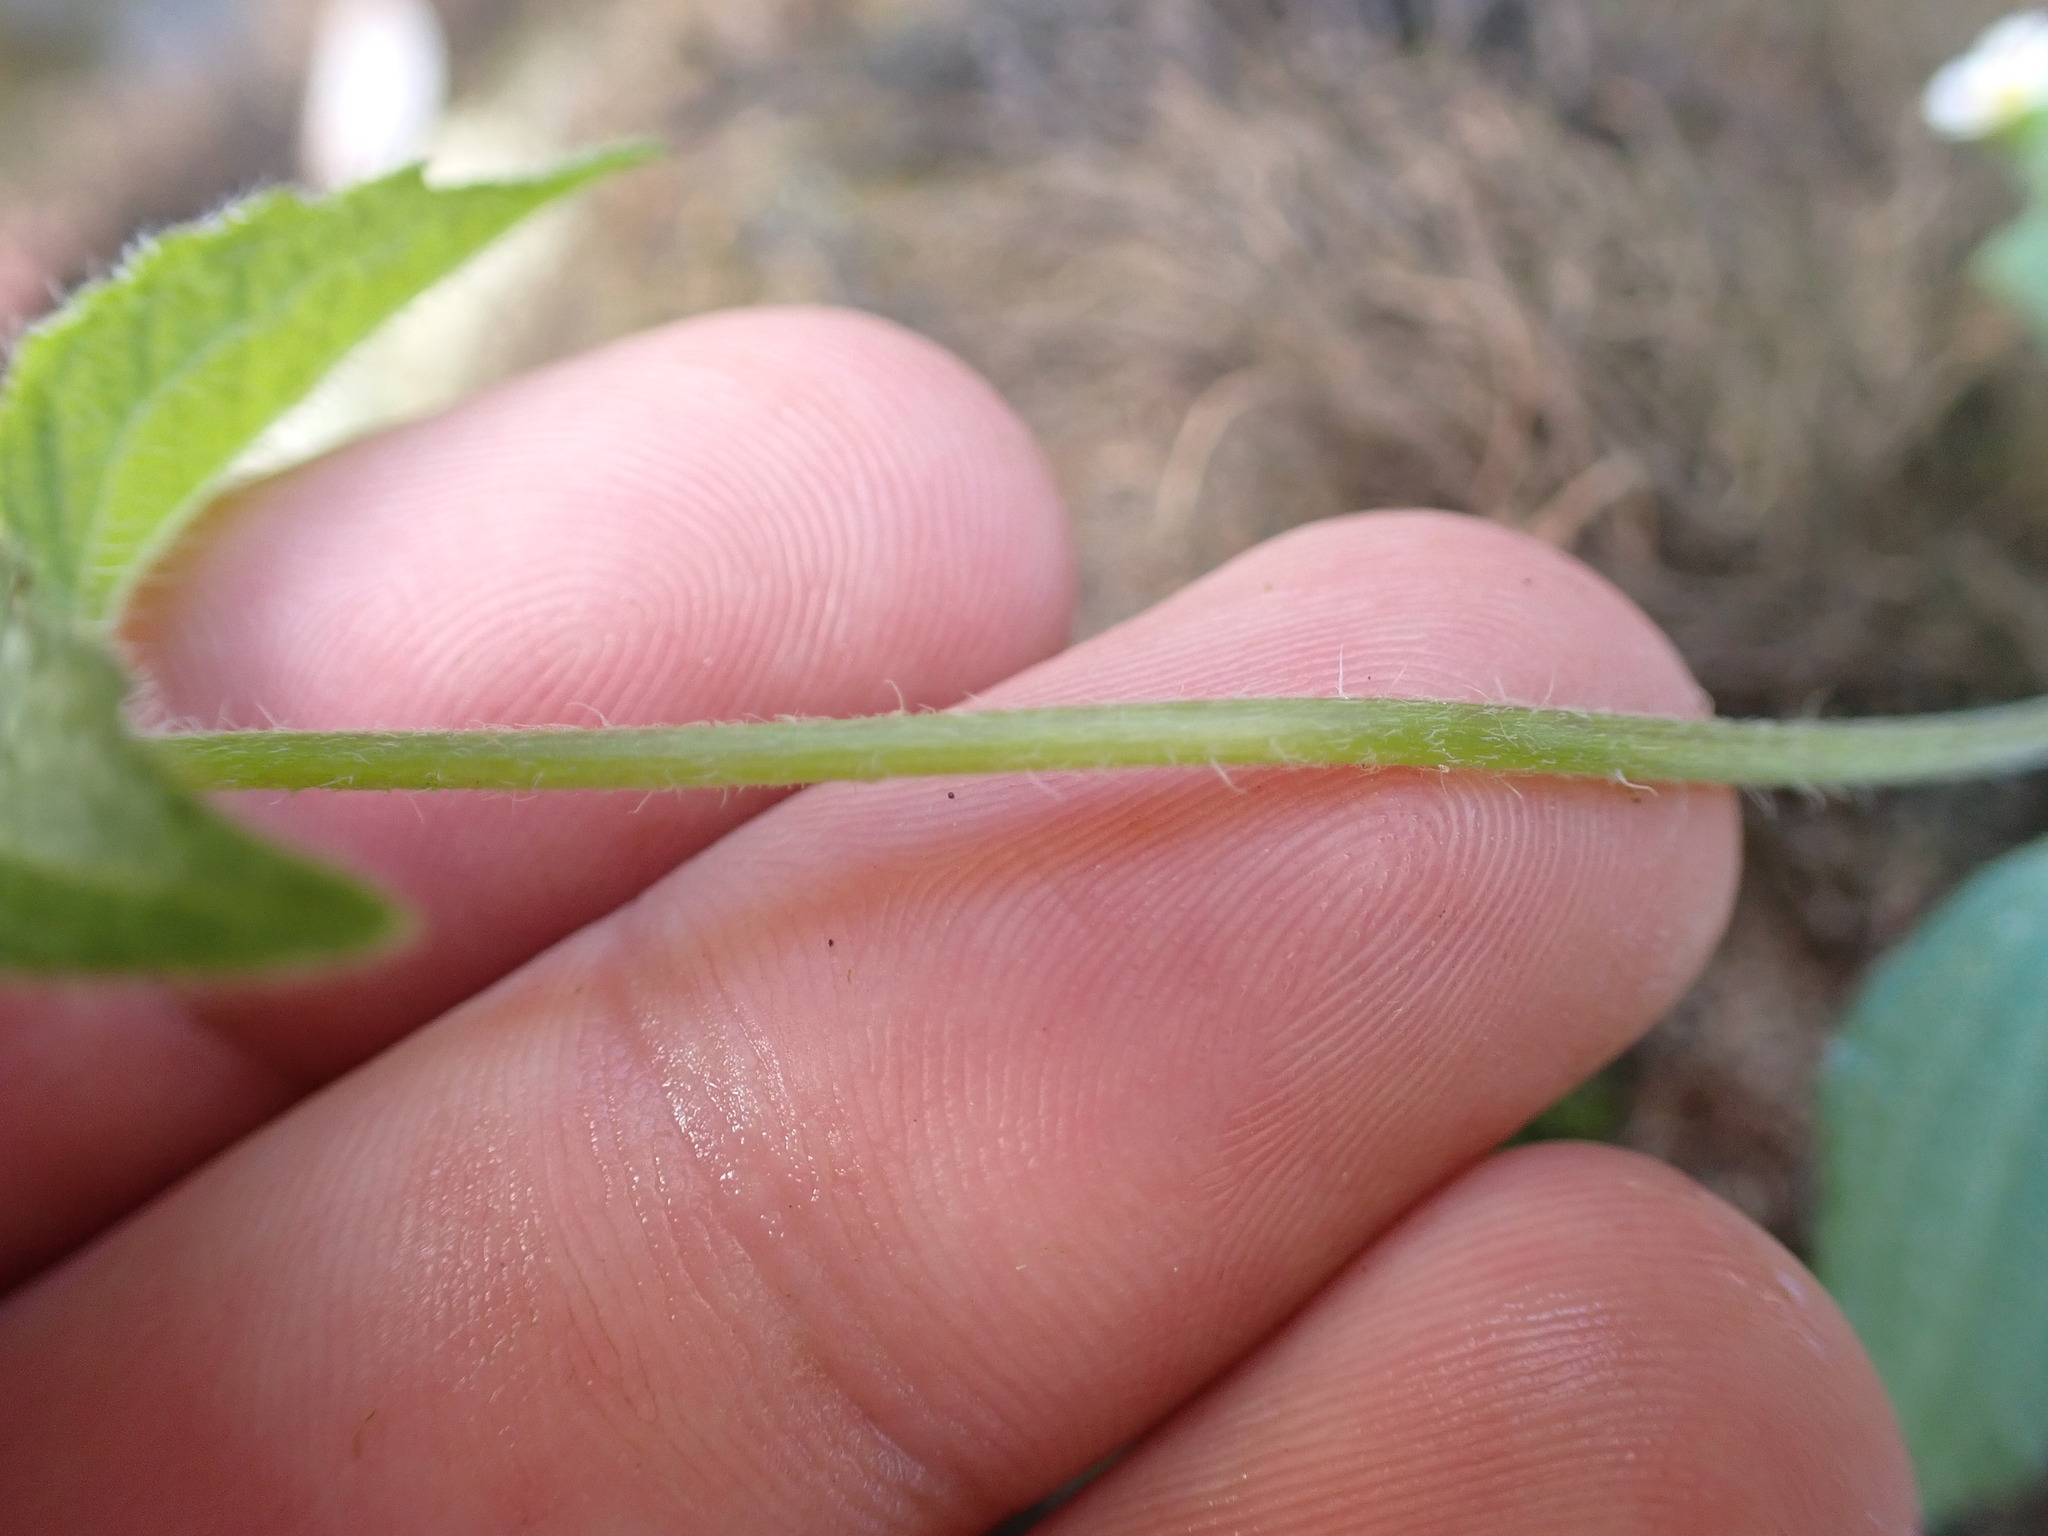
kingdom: Plantae
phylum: Tracheophyta
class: Magnoliopsida
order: Asterales
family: Asteraceae
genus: Galinsoga
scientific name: Galinsoga quadriradiata
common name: Shaggy soldier
